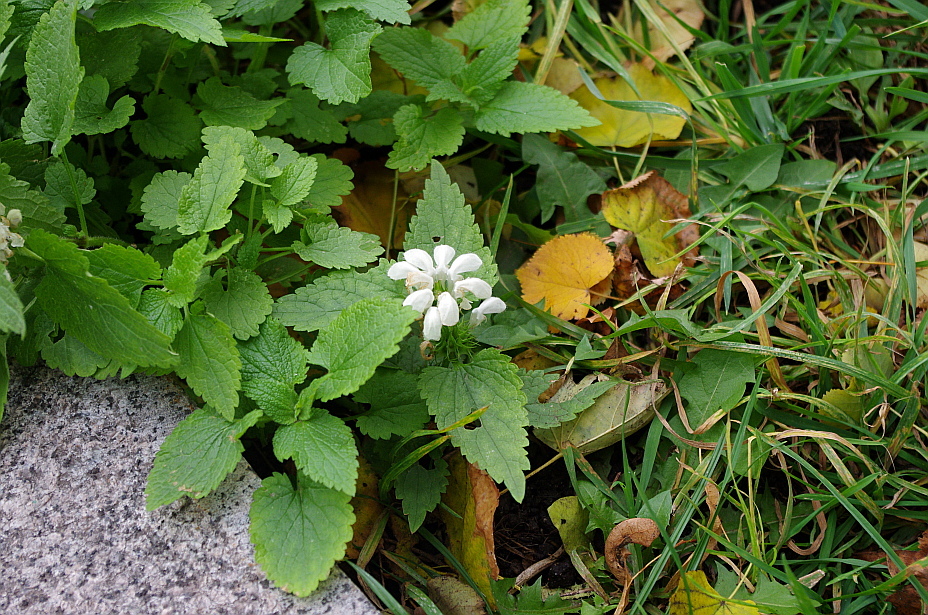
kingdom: Plantae
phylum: Tracheophyta
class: Magnoliopsida
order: Lamiales
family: Lamiaceae
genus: Lamium
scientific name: Lamium album
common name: White dead-nettle
